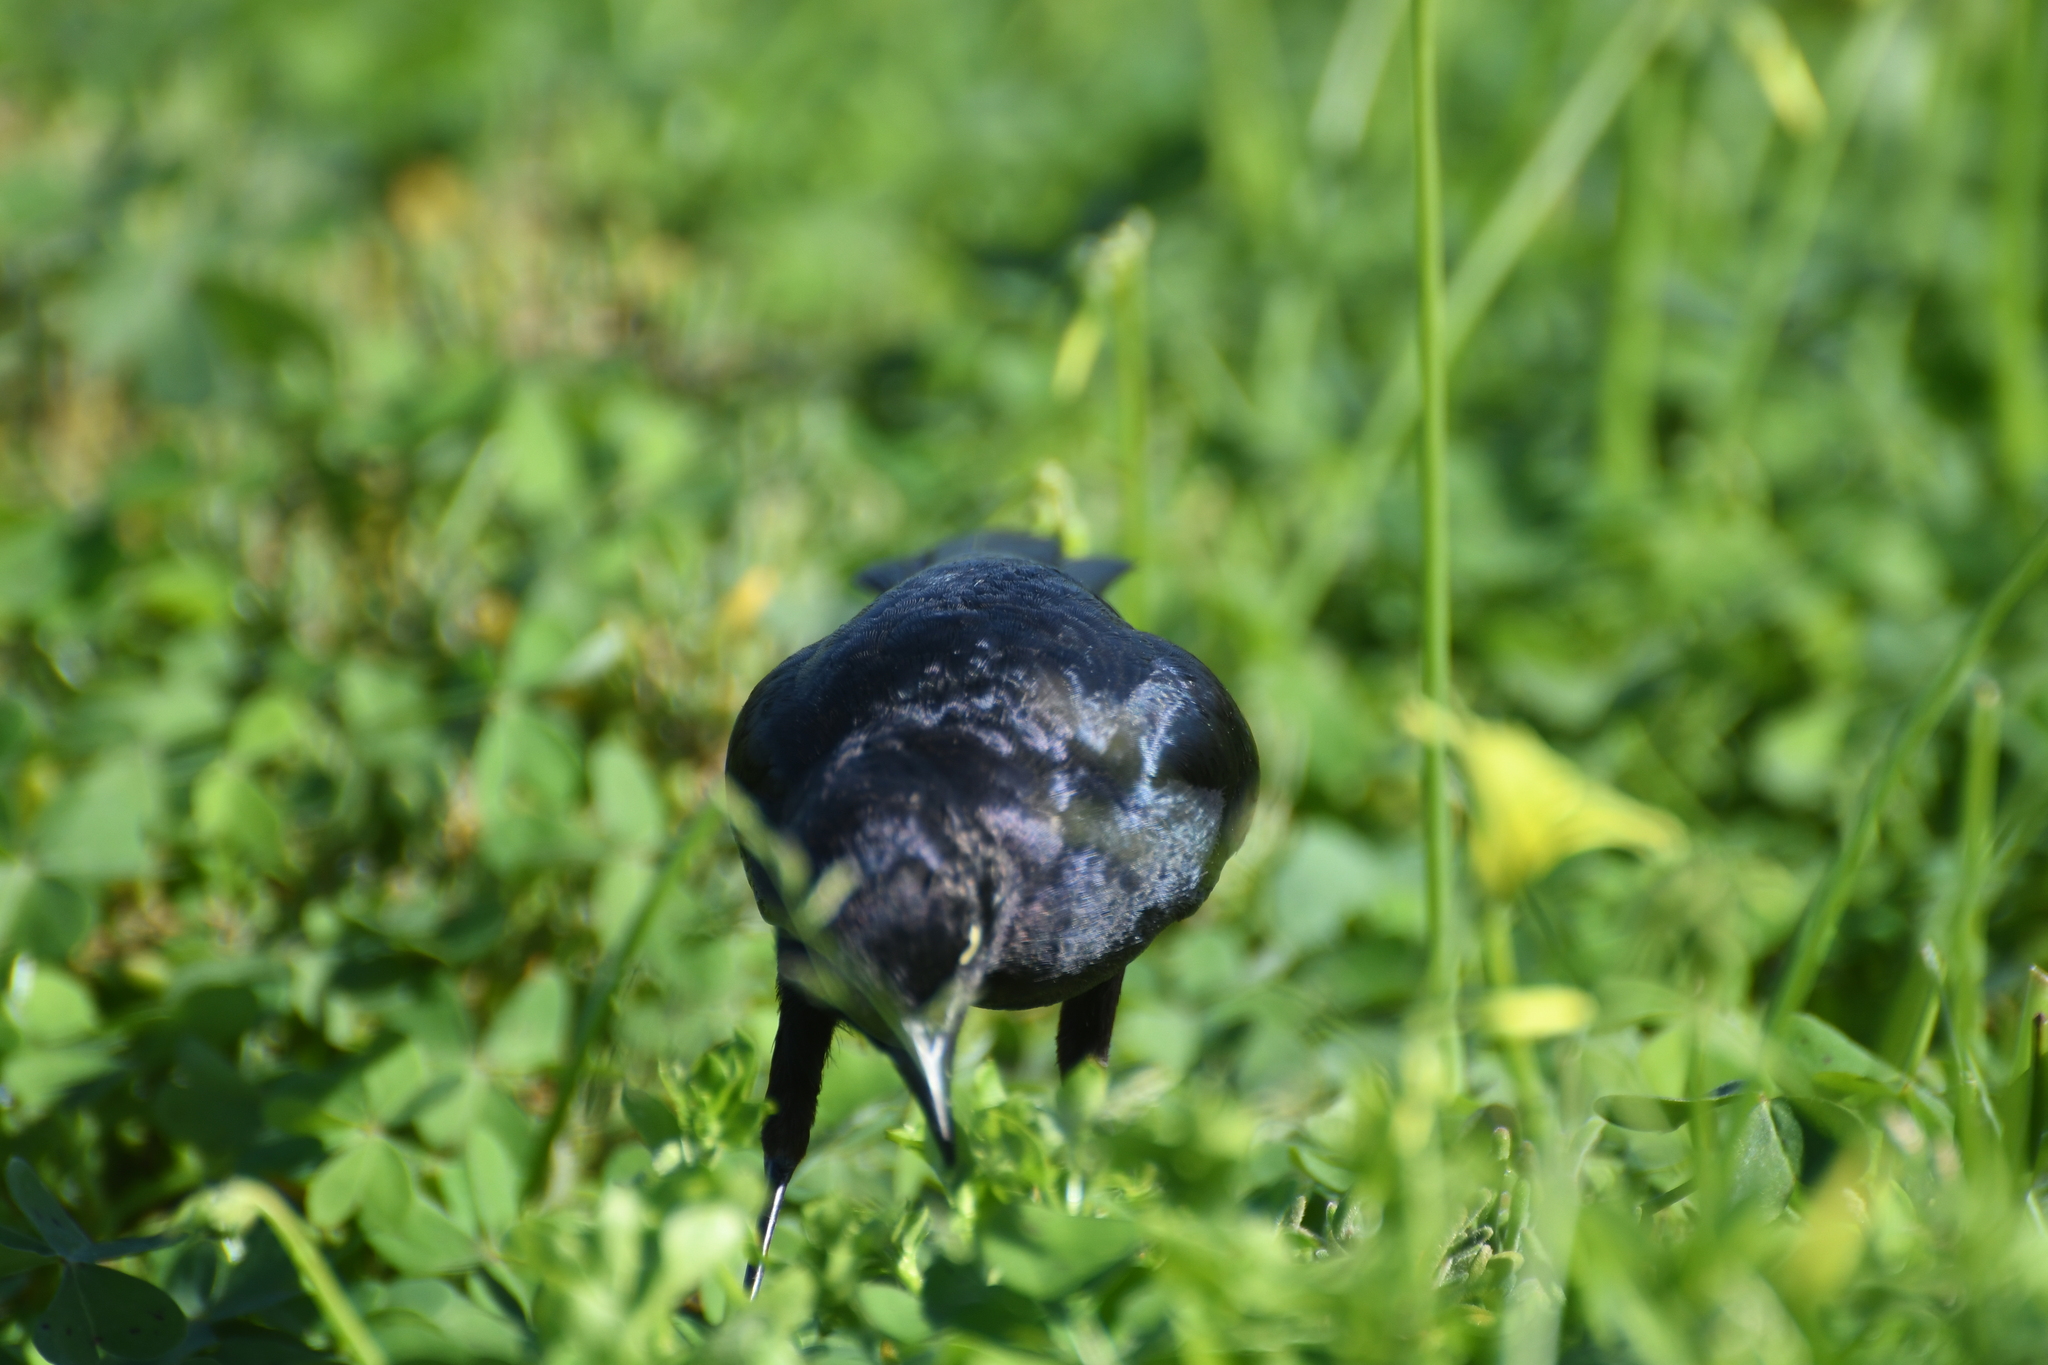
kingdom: Animalia
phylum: Chordata
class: Aves
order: Passeriformes
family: Icteridae
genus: Euphagus
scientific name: Euphagus cyanocephalus
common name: Brewer's blackbird
